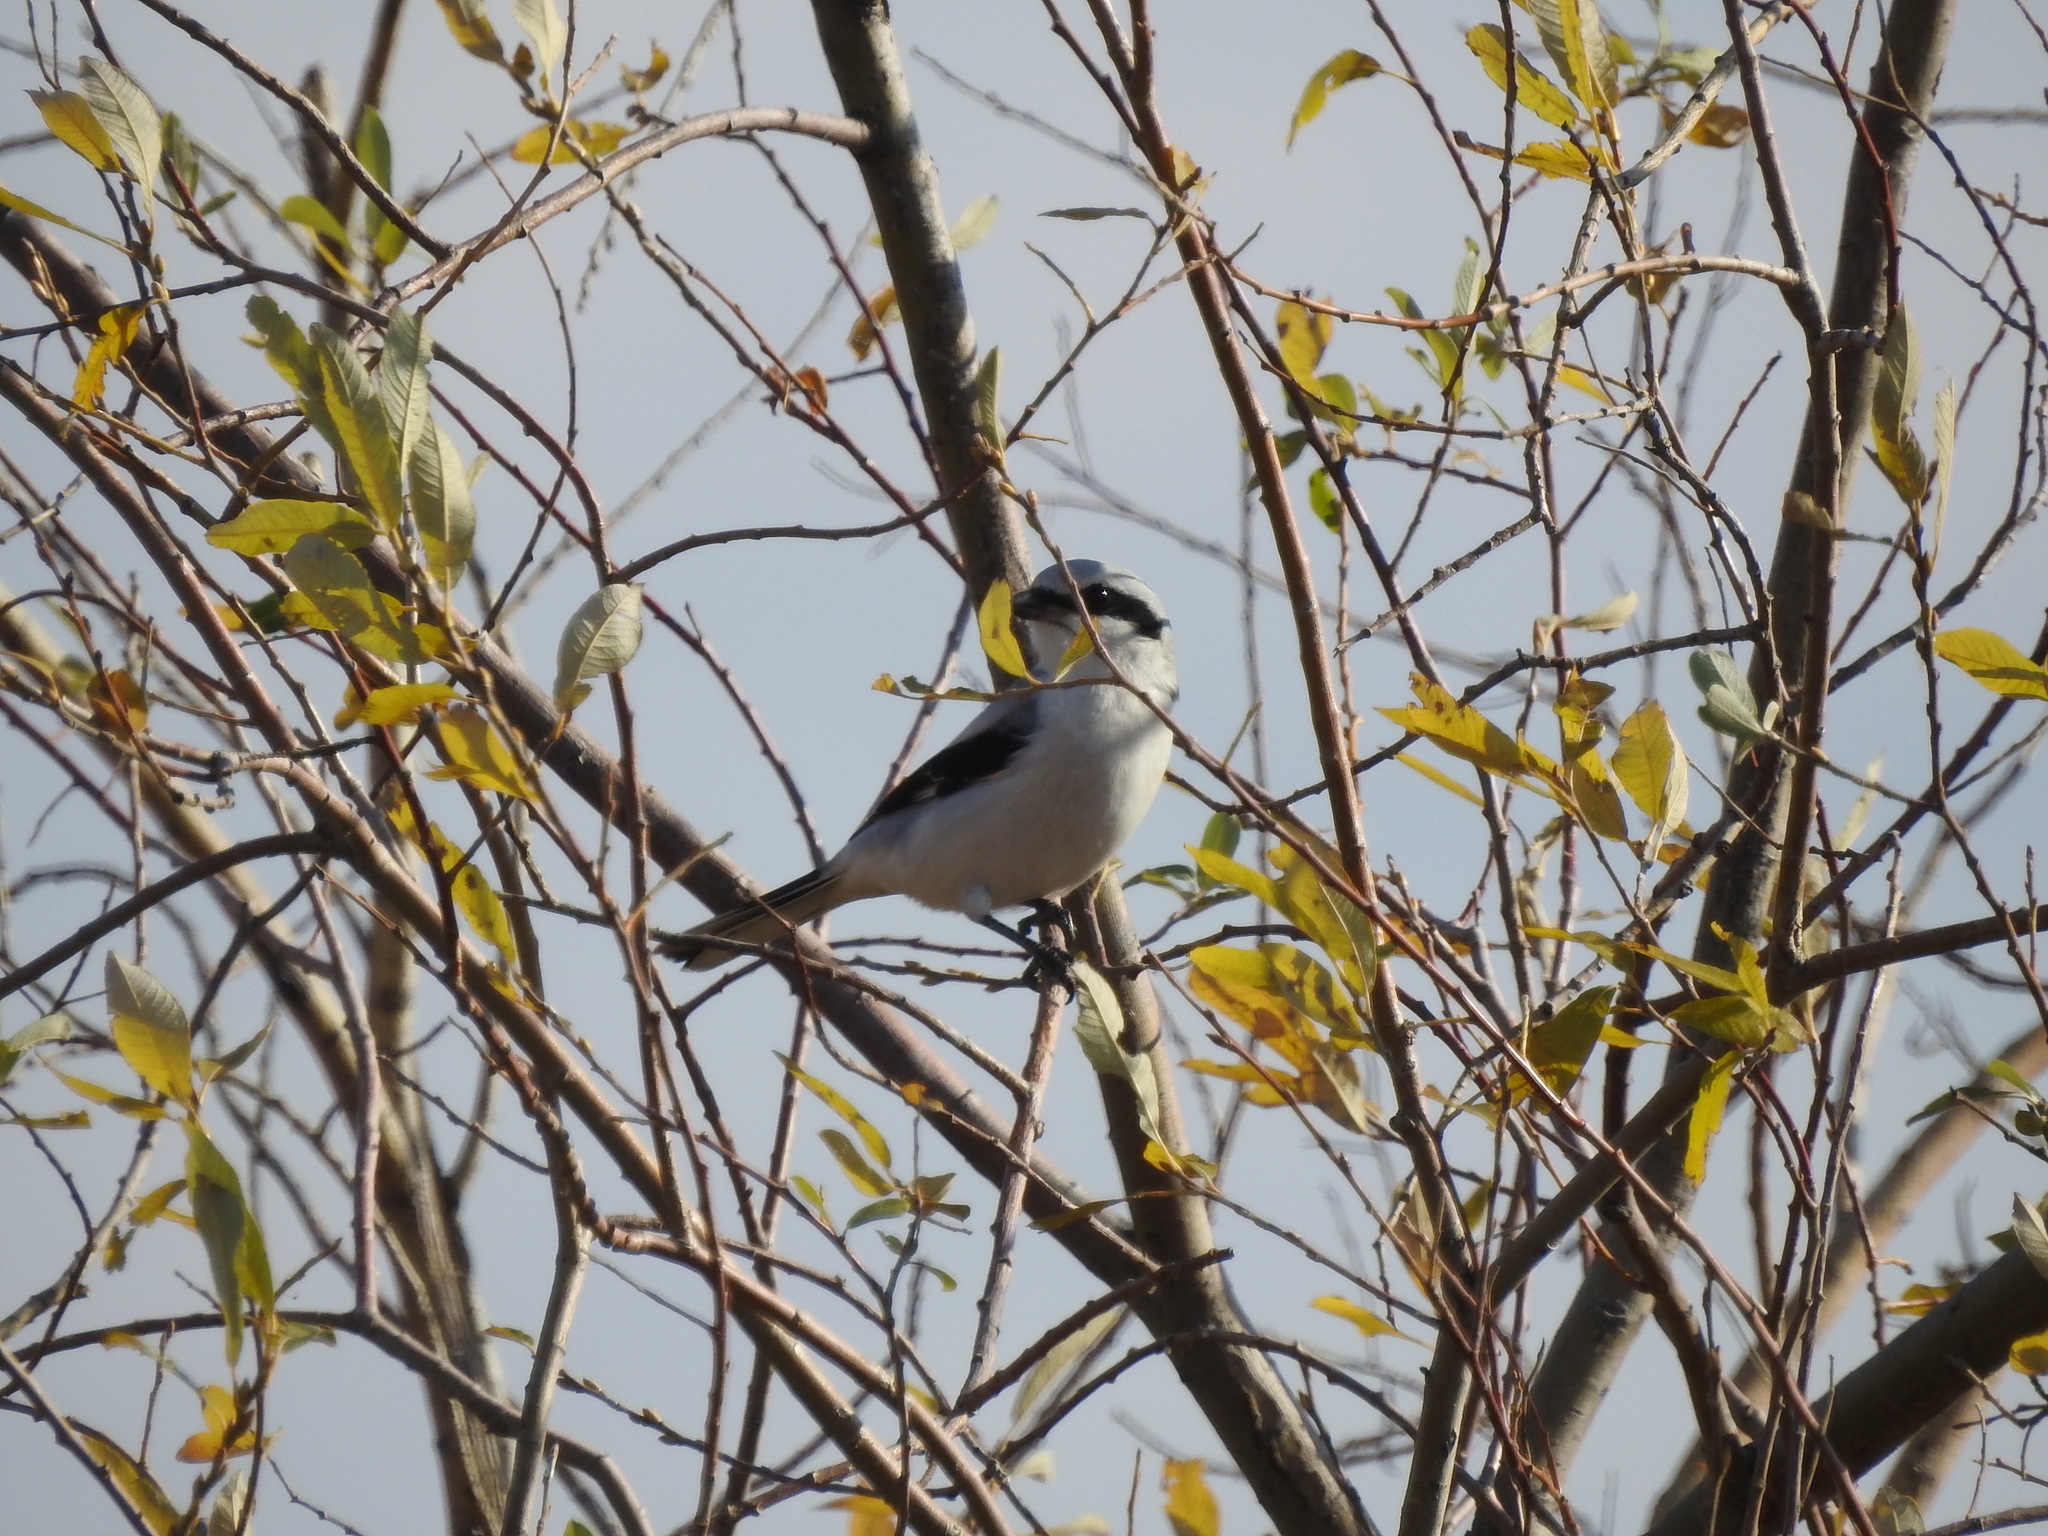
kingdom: Animalia
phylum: Chordata
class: Aves
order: Passeriformes
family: Laniidae
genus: Lanius
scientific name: Lanius excubitor
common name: Great grey shrike
